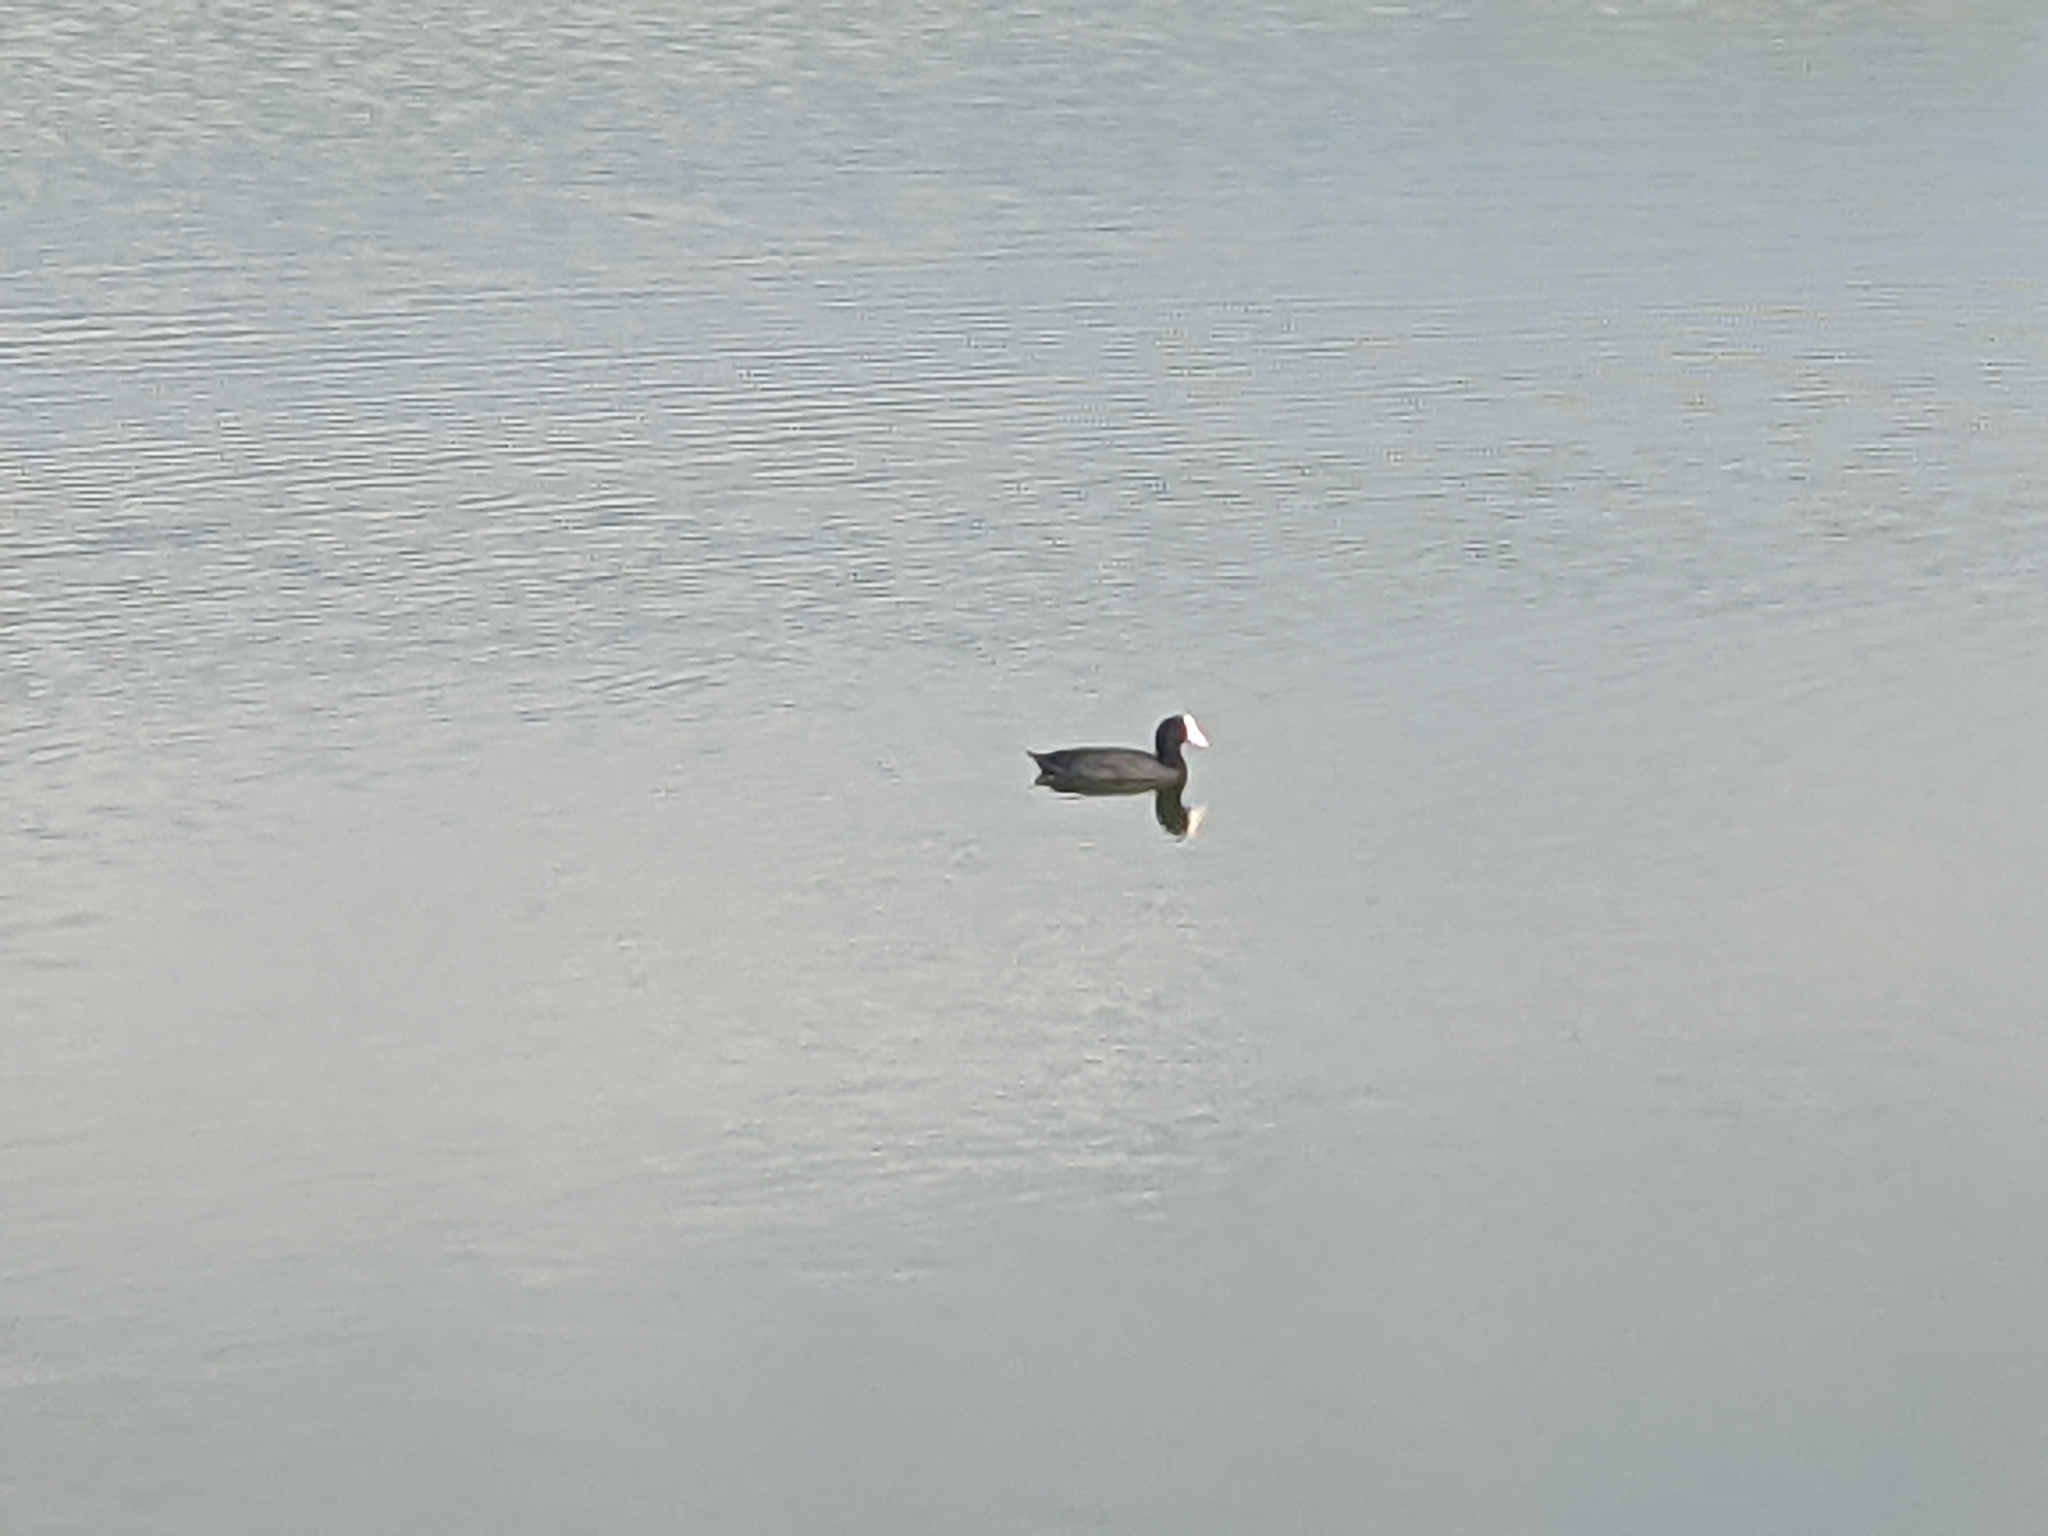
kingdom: Animalia
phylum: Chordata
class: Aves
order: Gruiformes
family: Rallidae
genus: Fulica
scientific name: Fulica alai
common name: Hawaiian coot
